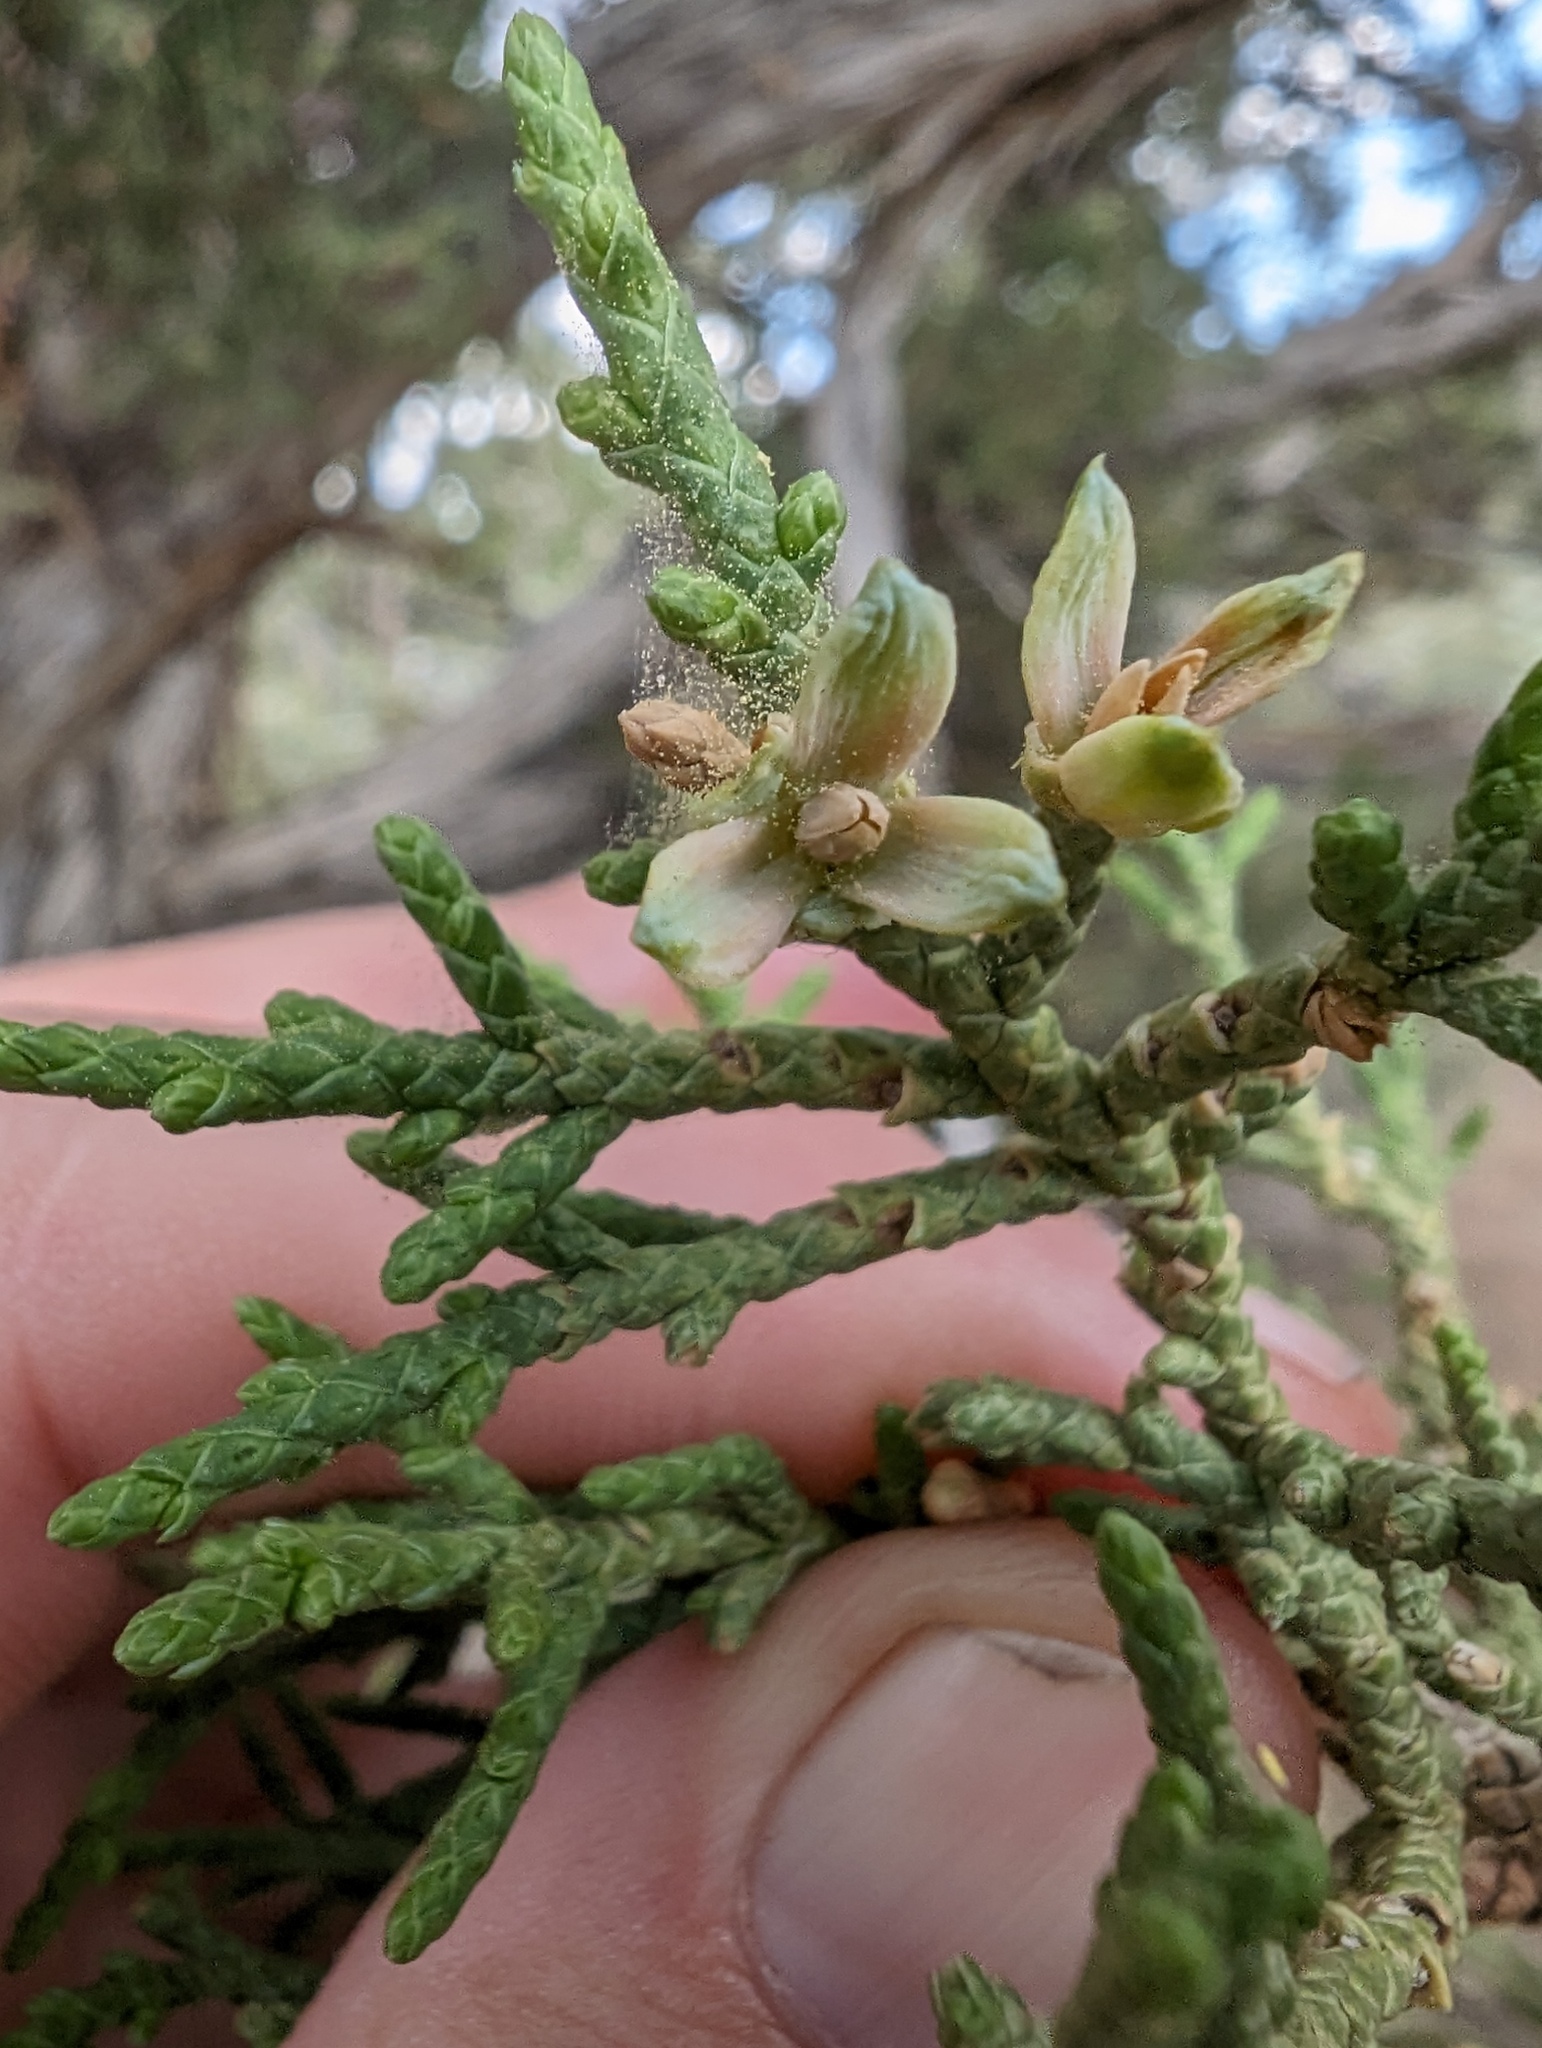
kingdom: Plantae
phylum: Tracheophyta
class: Pinopsida
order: Pinales
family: Cupressaceae
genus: Juniperus
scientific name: Juniperus osteosperma
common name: Utah juniper
